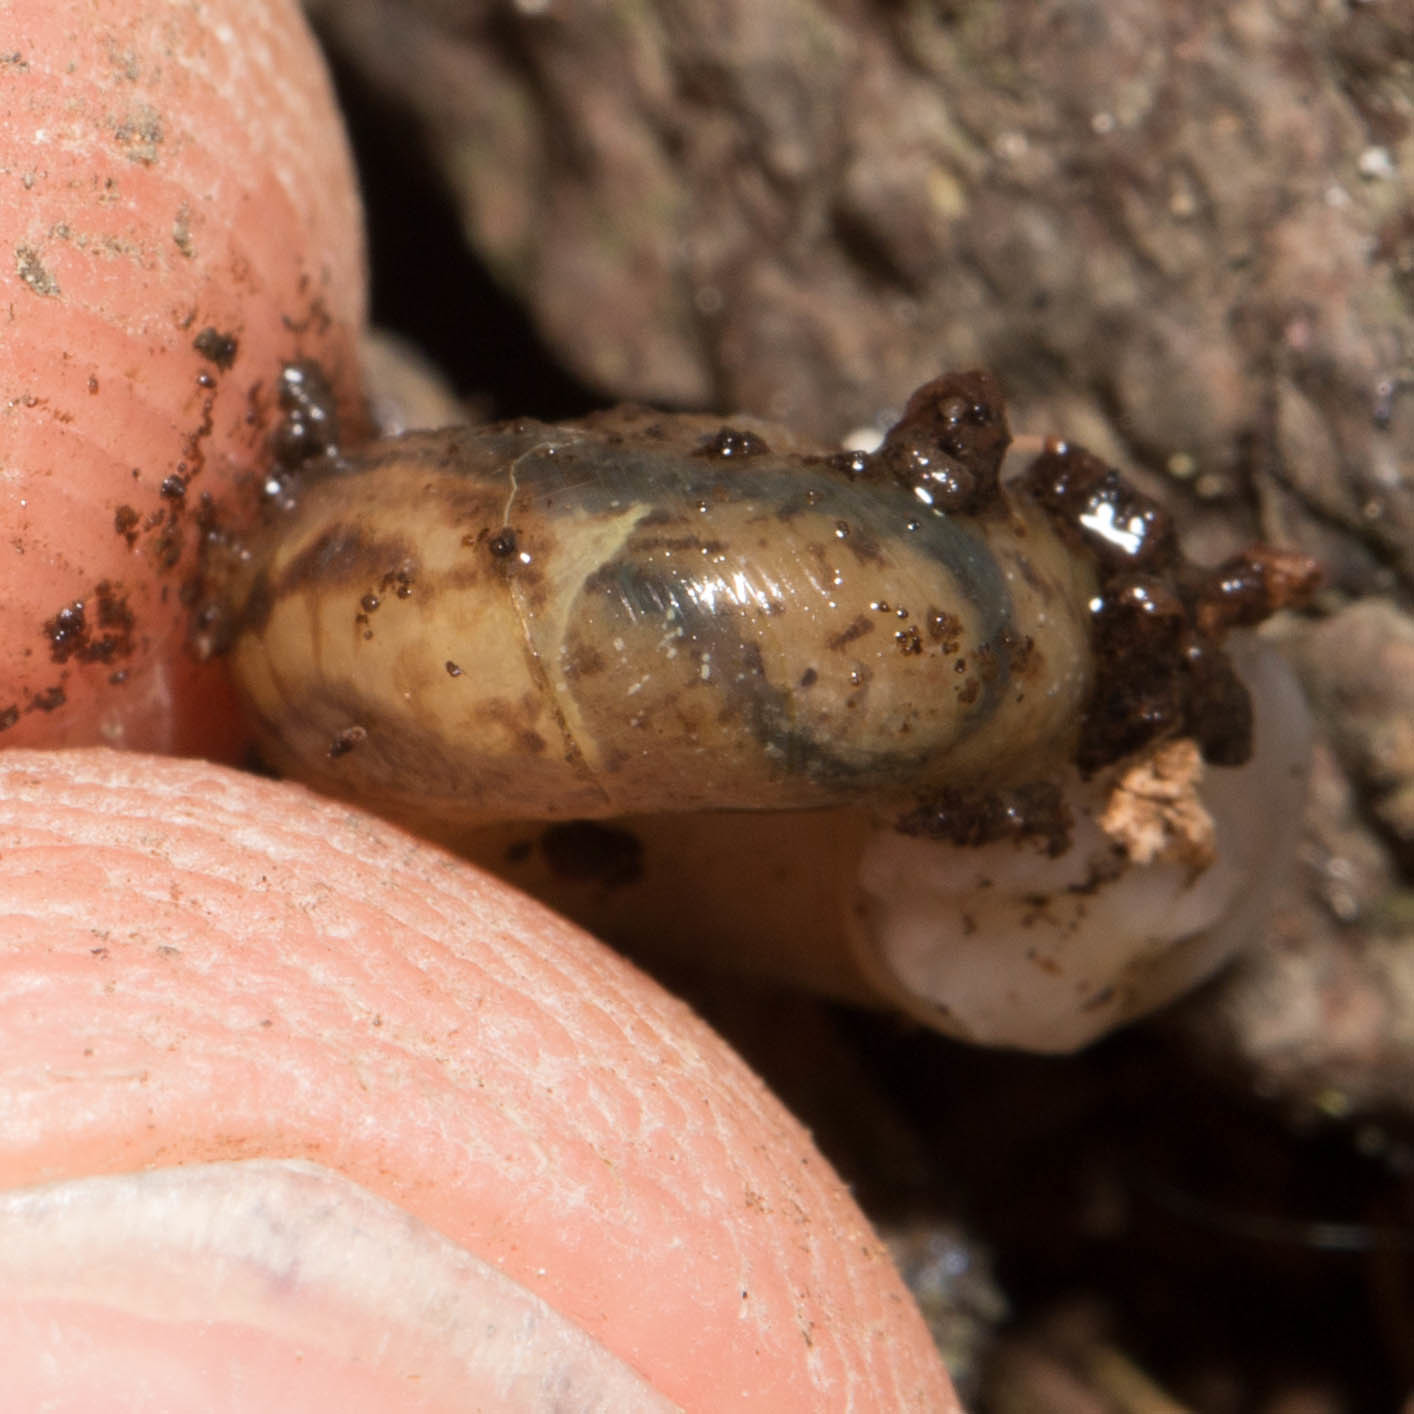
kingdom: Animalia
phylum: Mollusca
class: Gastropoda
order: Stylommatophora
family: Haplotrematidae
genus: Haplotrema
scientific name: Haplotrema minimum
